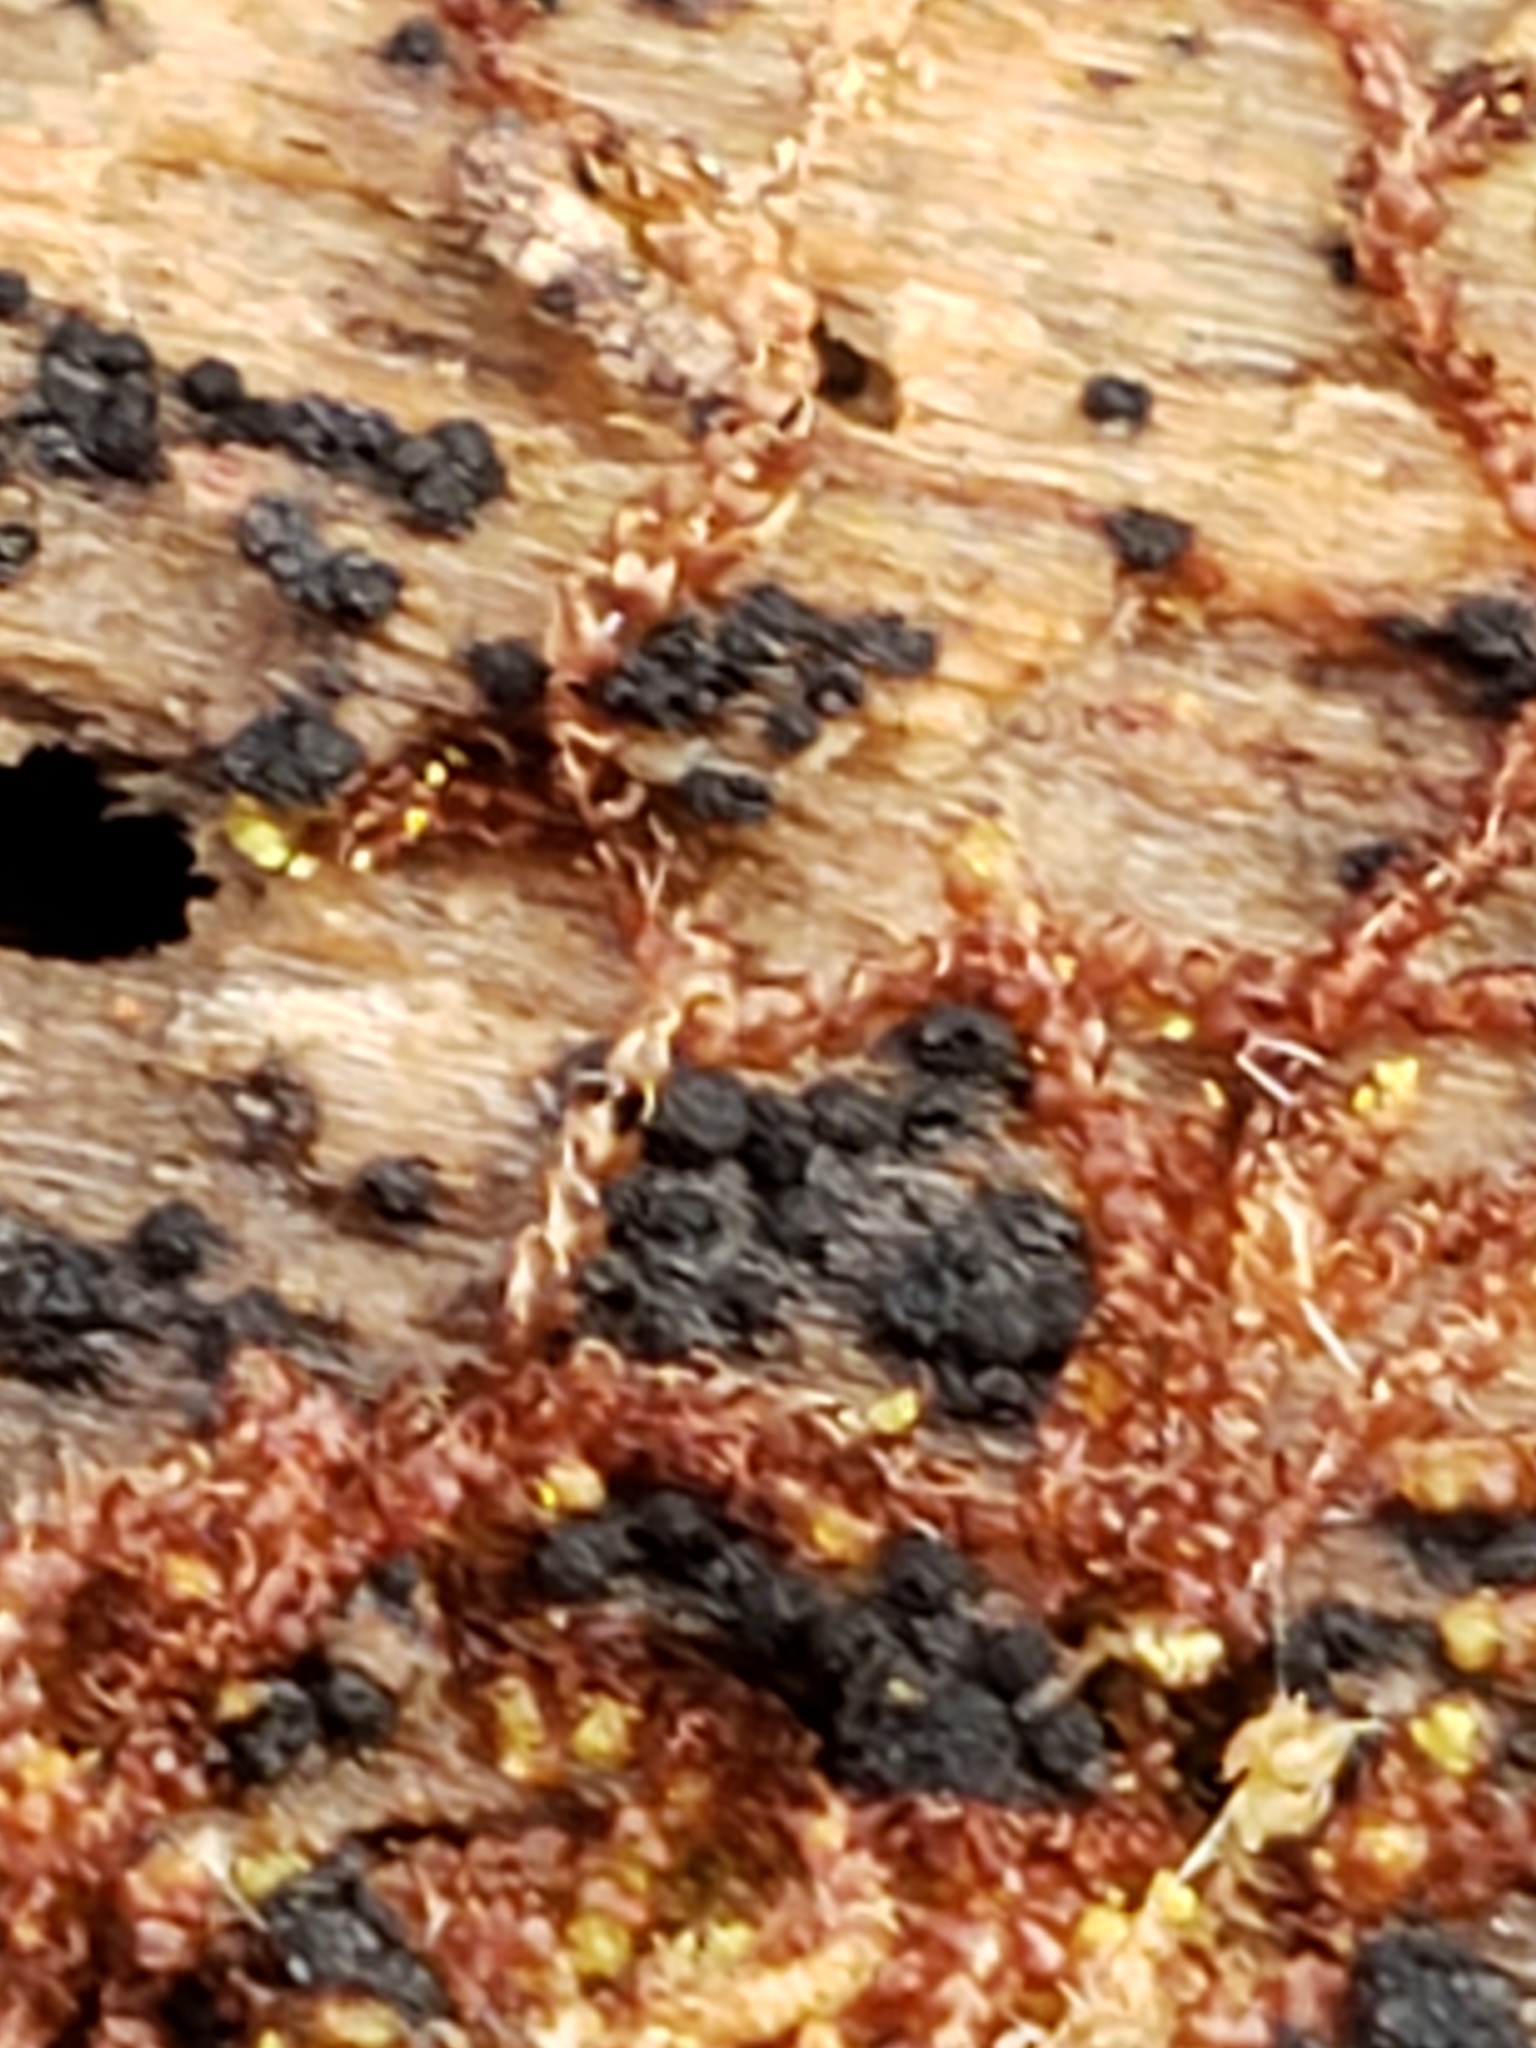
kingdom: Plantae
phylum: Marchantiophyta
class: Jungermanniopsida
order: Jungermanniales
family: Cephaloziaceae
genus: Nowellia
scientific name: Nowellia curvifolia
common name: Wood rustwort
